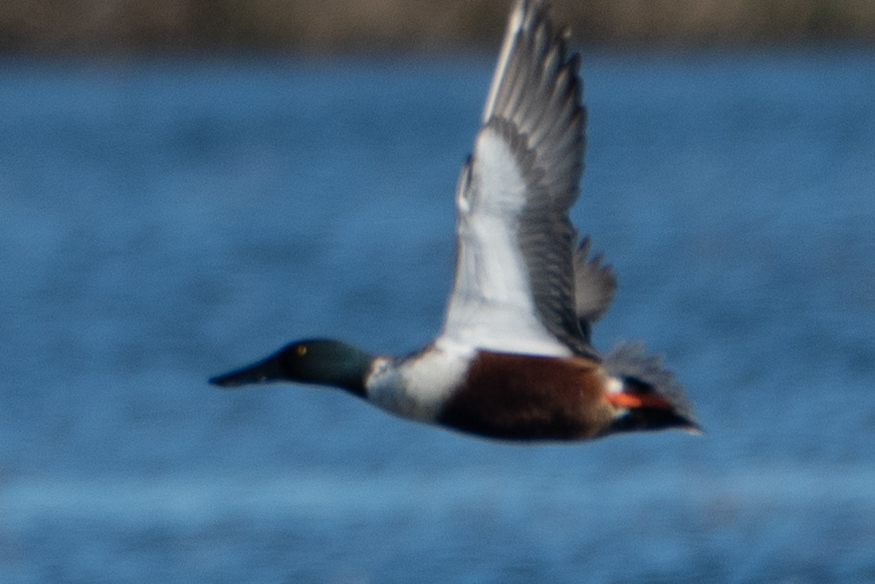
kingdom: Animalia
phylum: Chordata
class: Aves
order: Anseriformes
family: Anatidae
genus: Spatula
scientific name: Spatula clypeata
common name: Northern shoveler
